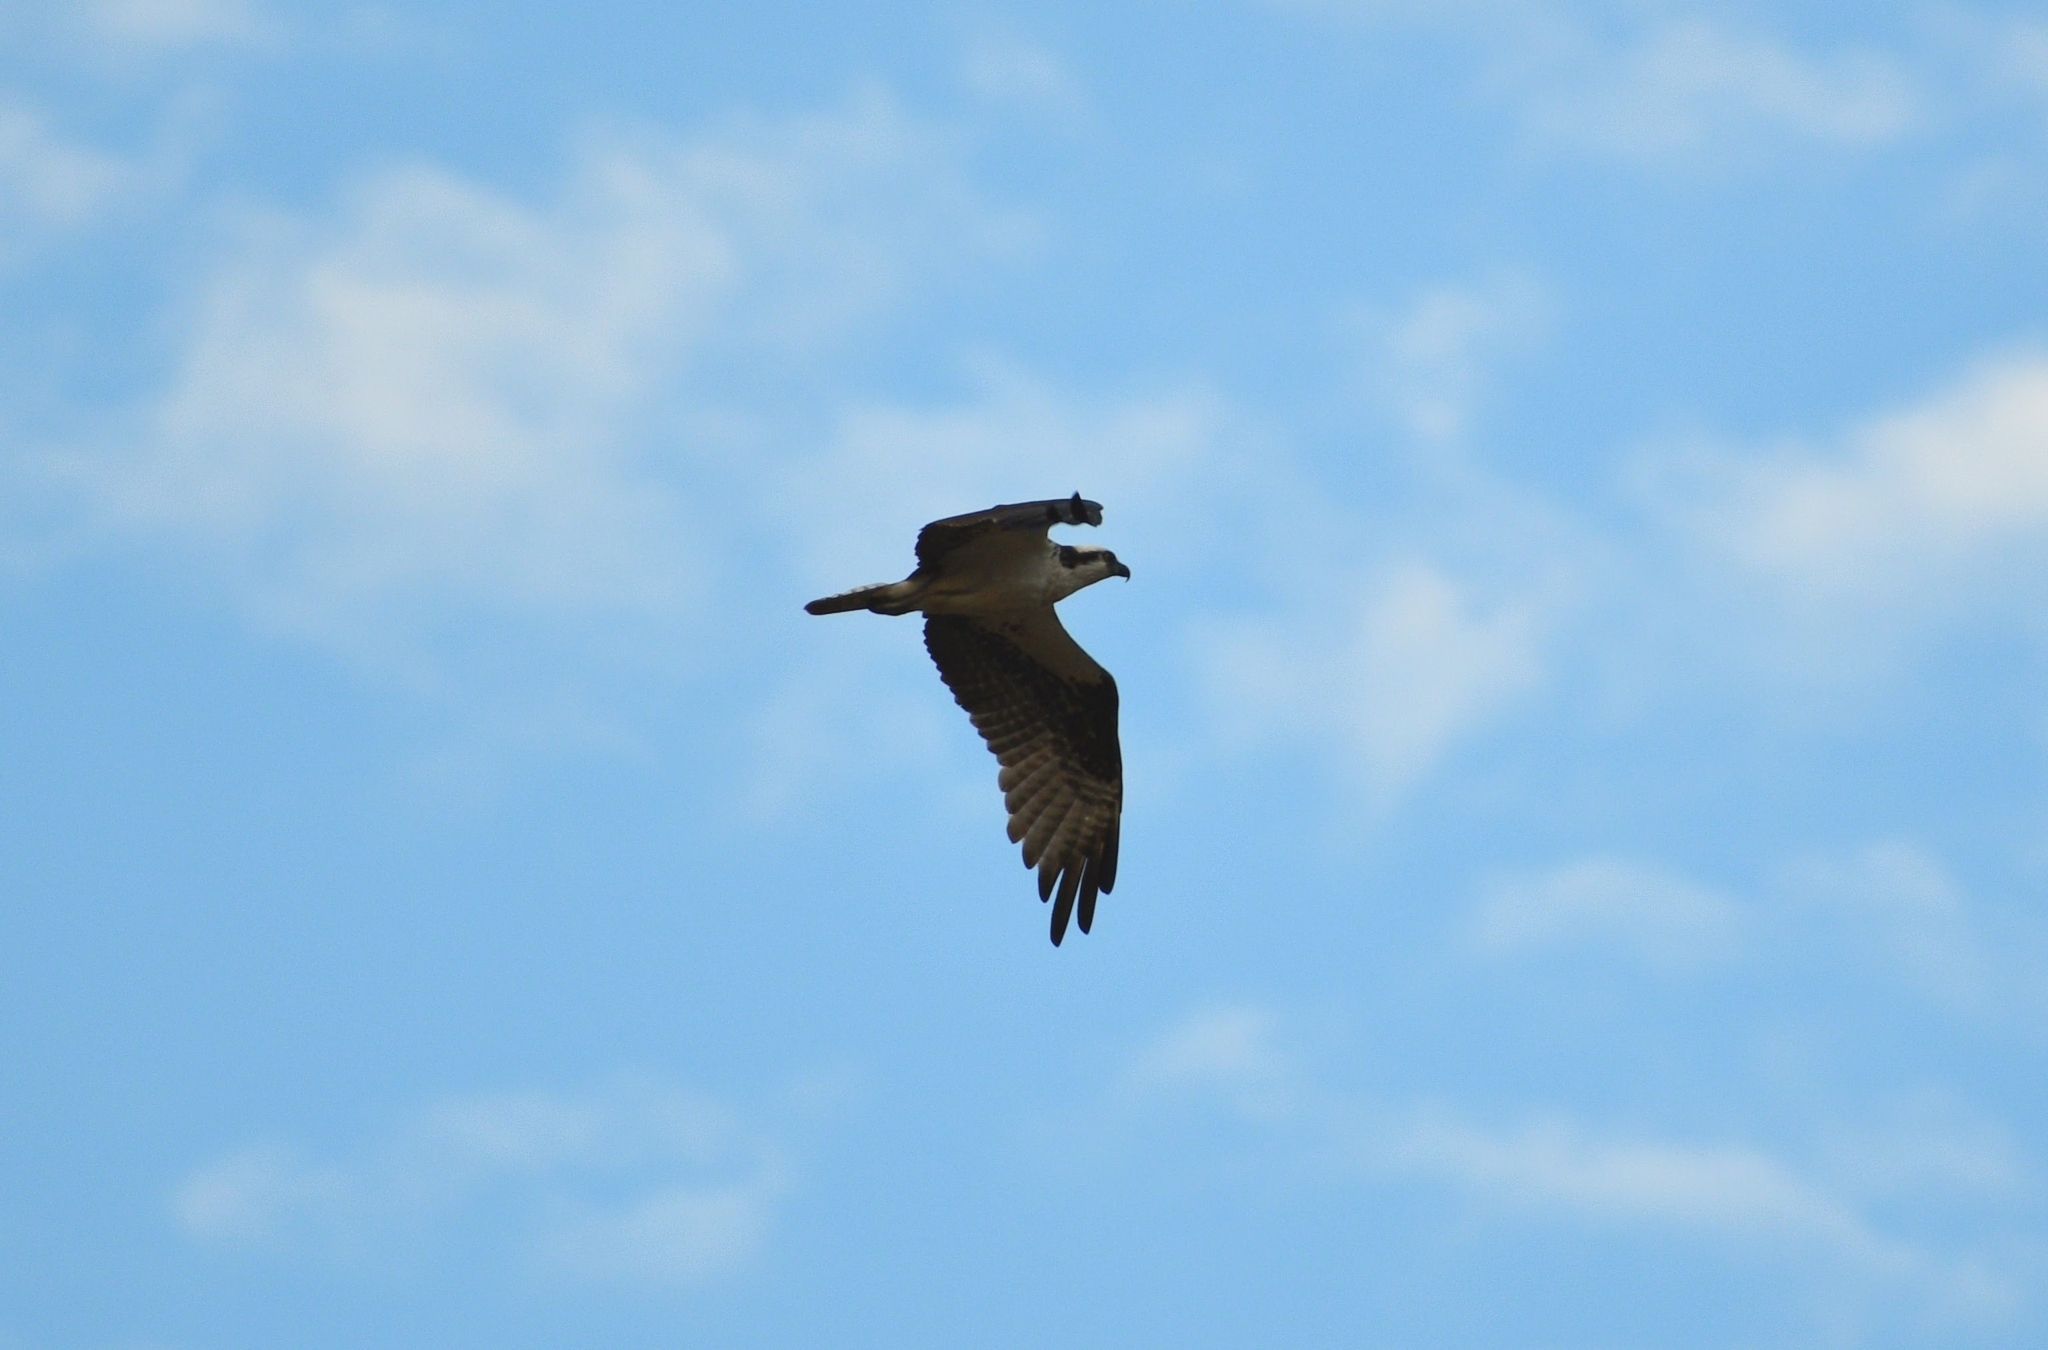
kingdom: Animalia
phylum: Chordata
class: Aves
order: Accipitriformes
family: Pandionidae
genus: Pandion
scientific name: Pandion haliaetus
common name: Osprey
